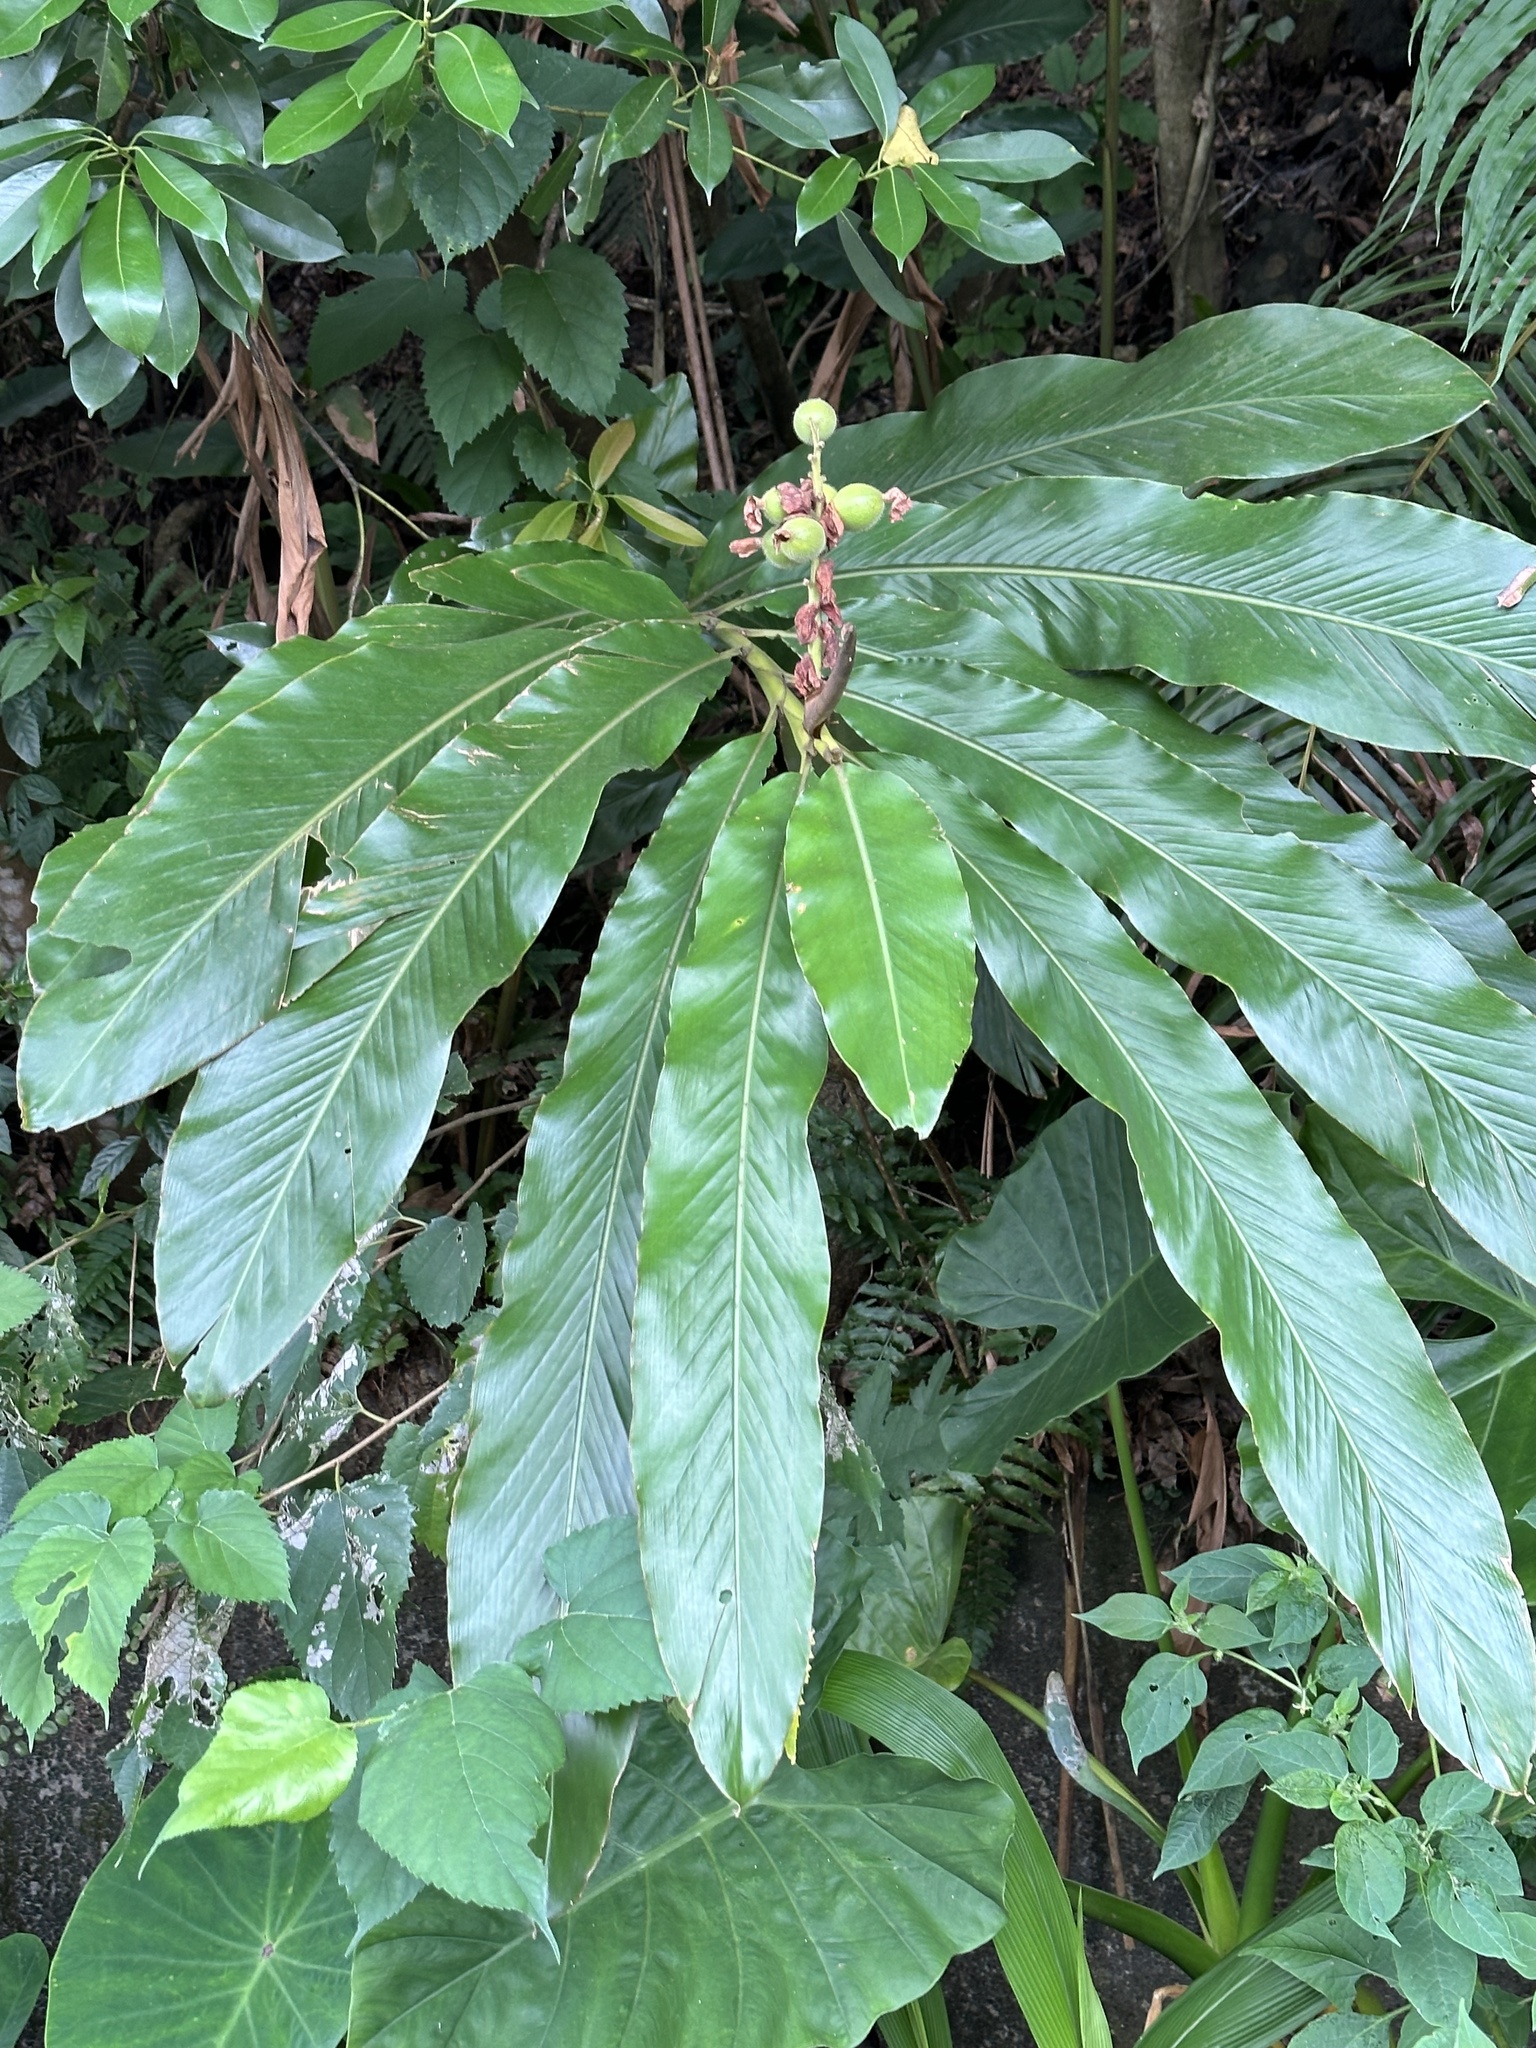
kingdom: Plantae
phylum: Tracheophyta
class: Liliopsida
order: Zingiberales
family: Zingiberaceae
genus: Alpinia
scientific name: Alpinia uraiensis
